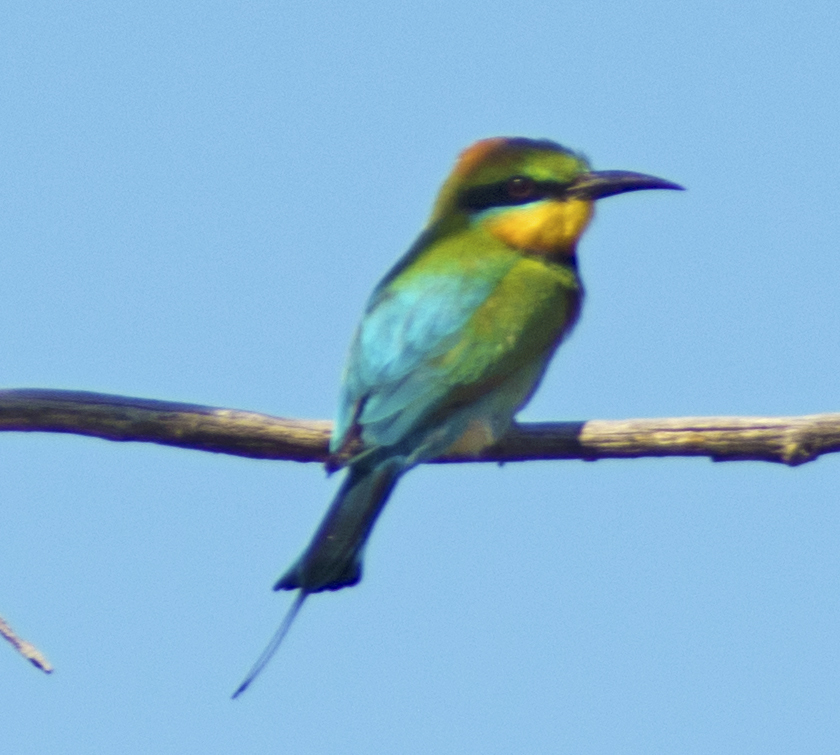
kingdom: Animalia
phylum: Chordata
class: Aves
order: Coraciiformes
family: Meropidae
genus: Merops
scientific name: Merops ornatus
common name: Rainbow bee-eater
